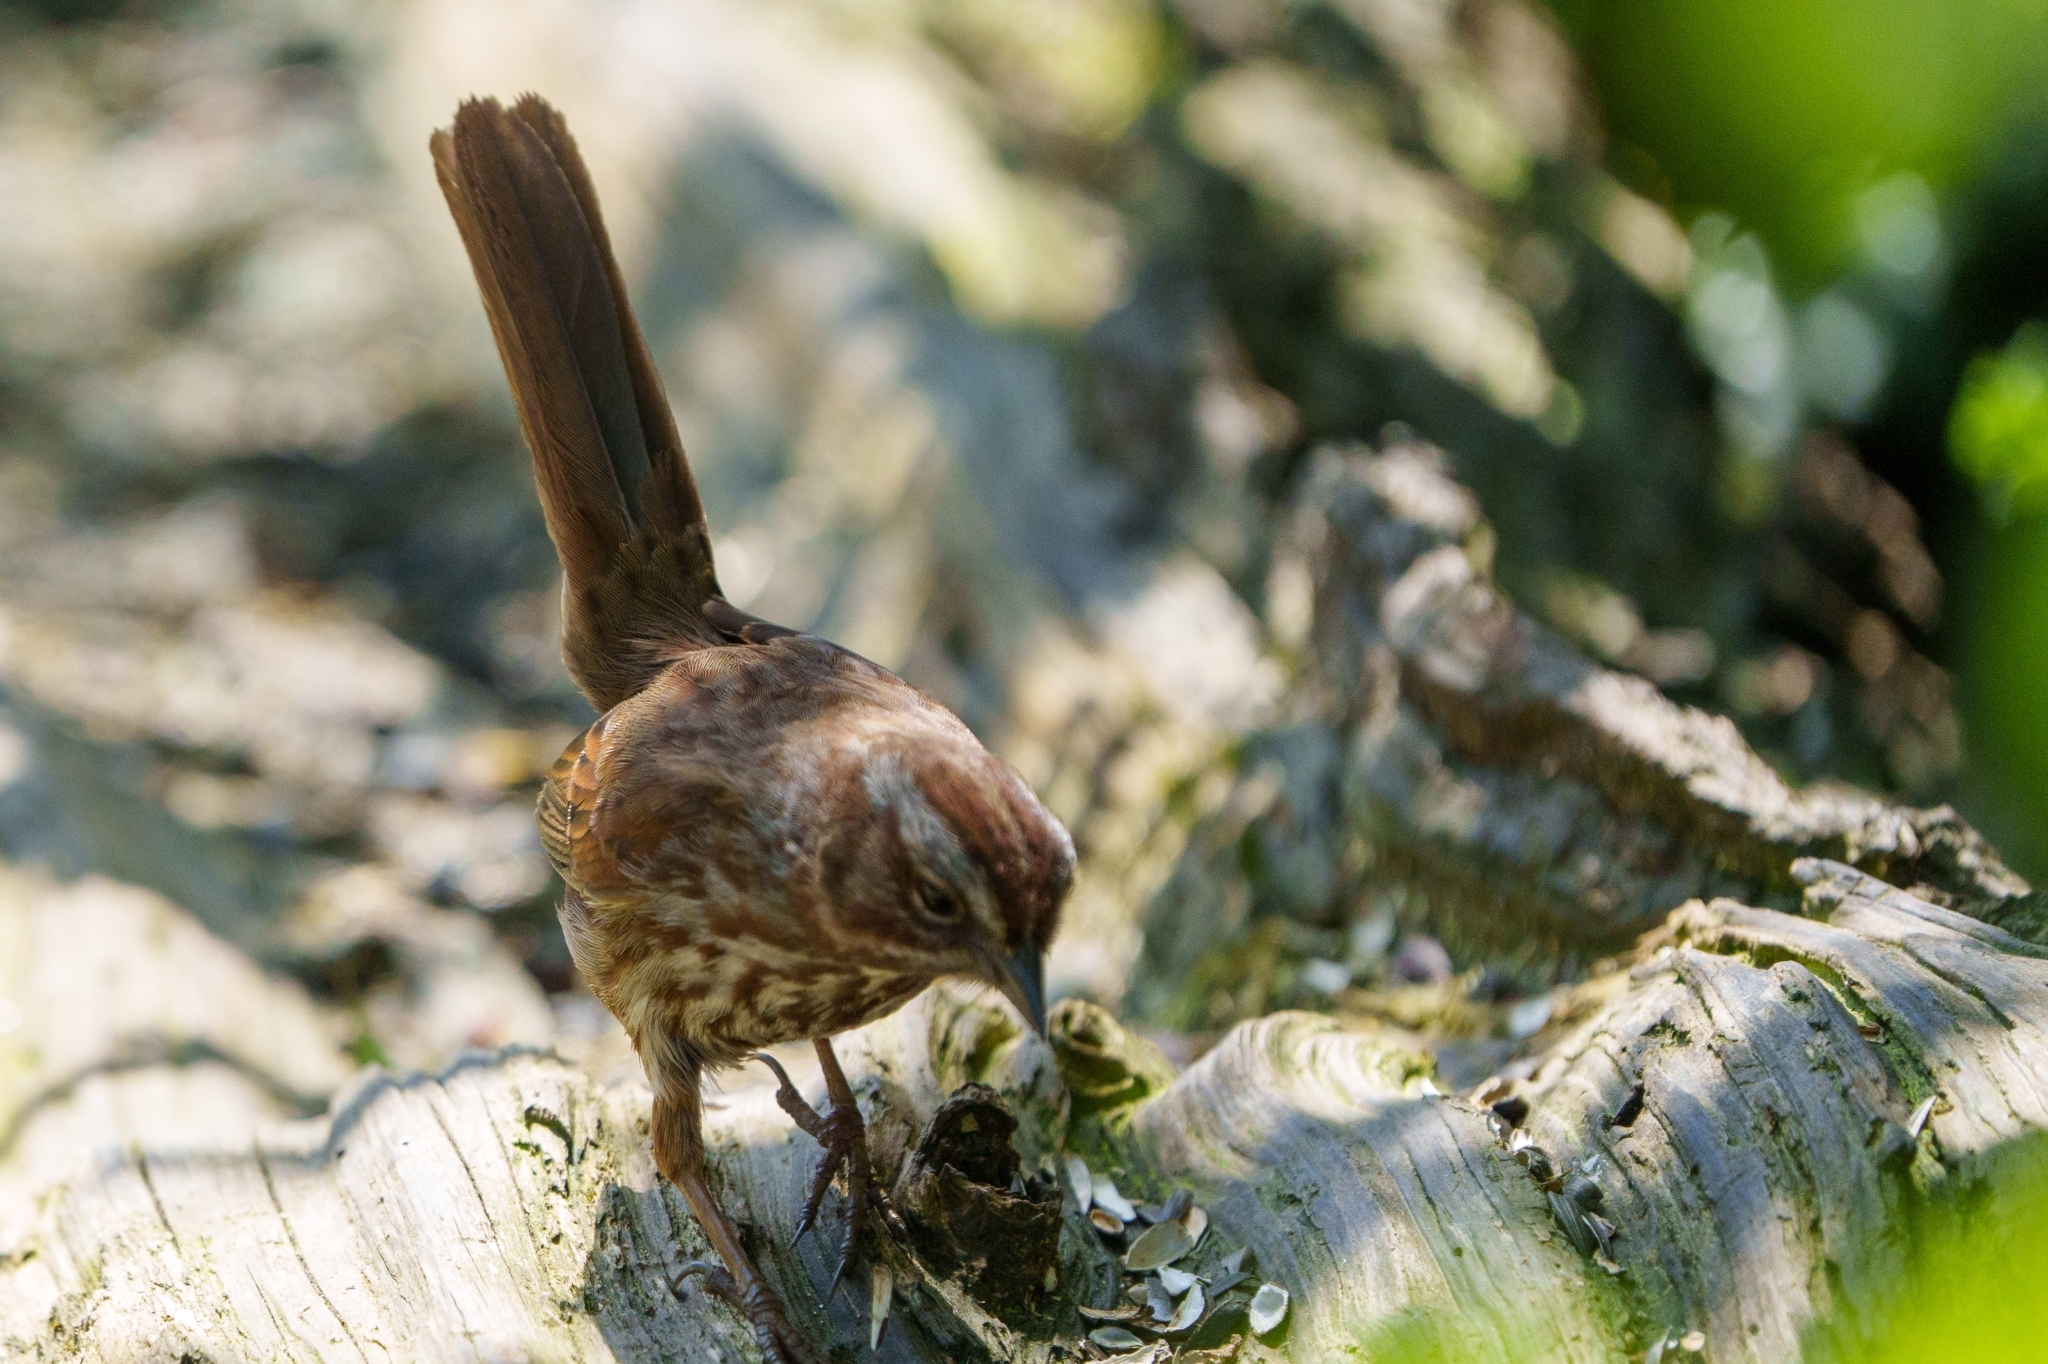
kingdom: Animalia
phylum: Chordata
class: Aves
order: Passeriformes
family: Passerellidae
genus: Melospiza
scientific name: Melospiza melodia
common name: Song sparrow
